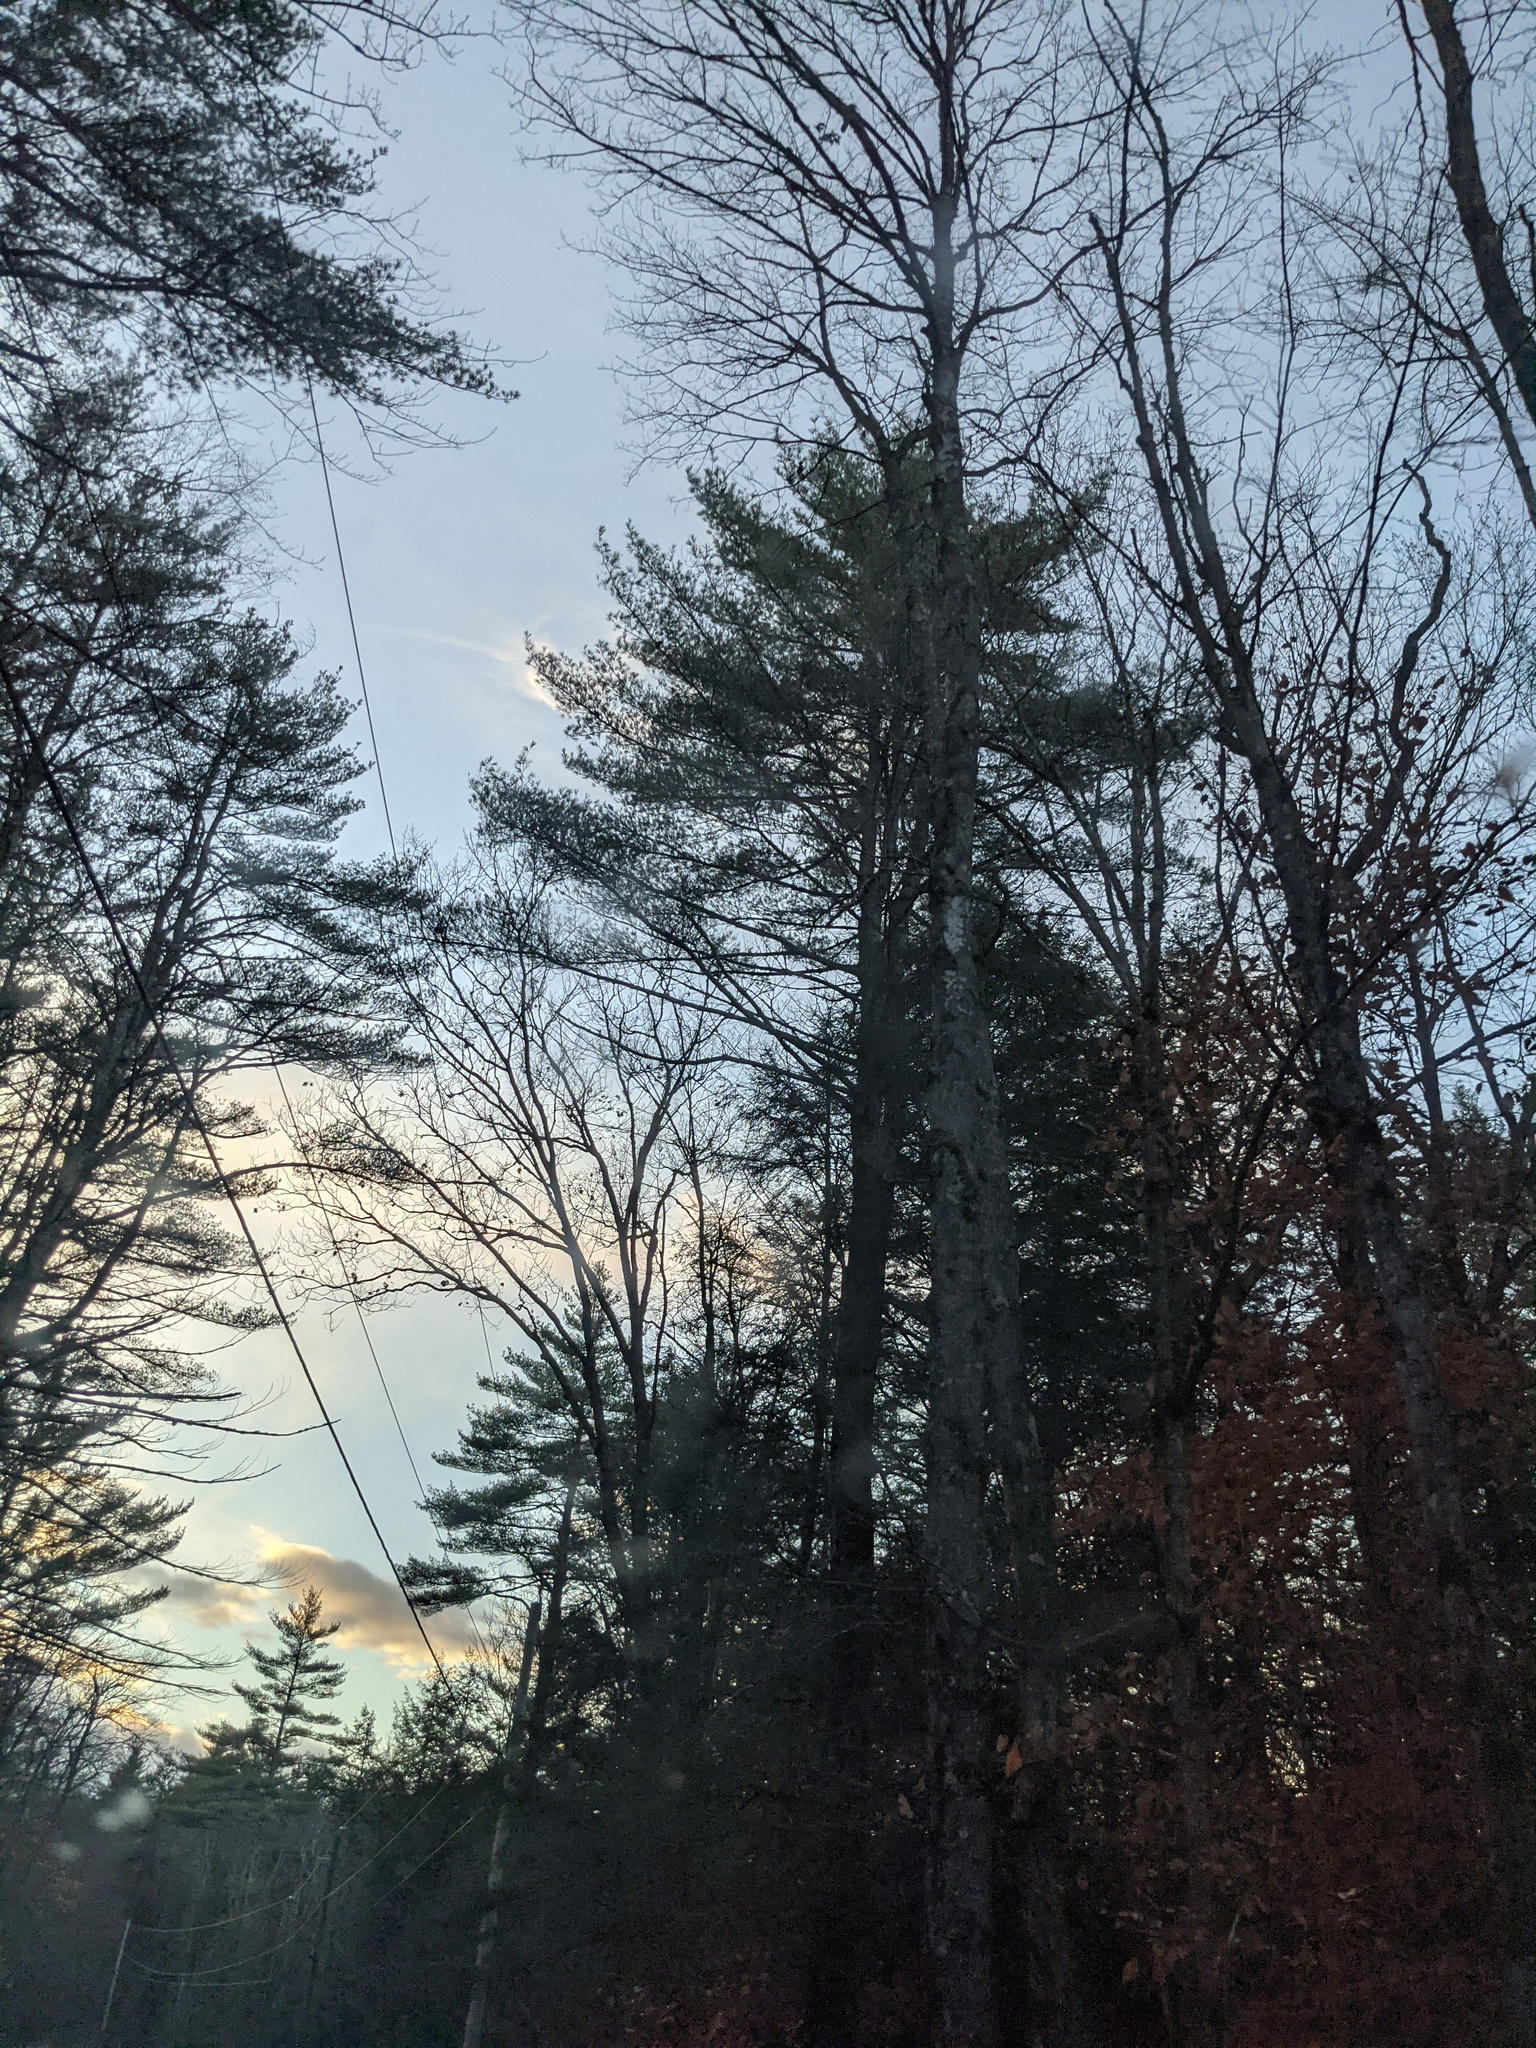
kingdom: Plantae
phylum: Tracheophyta
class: Pinopsida
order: Pinales
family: Pinaceae
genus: Pinus
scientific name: Pinus strobus
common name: Weymouth pine
